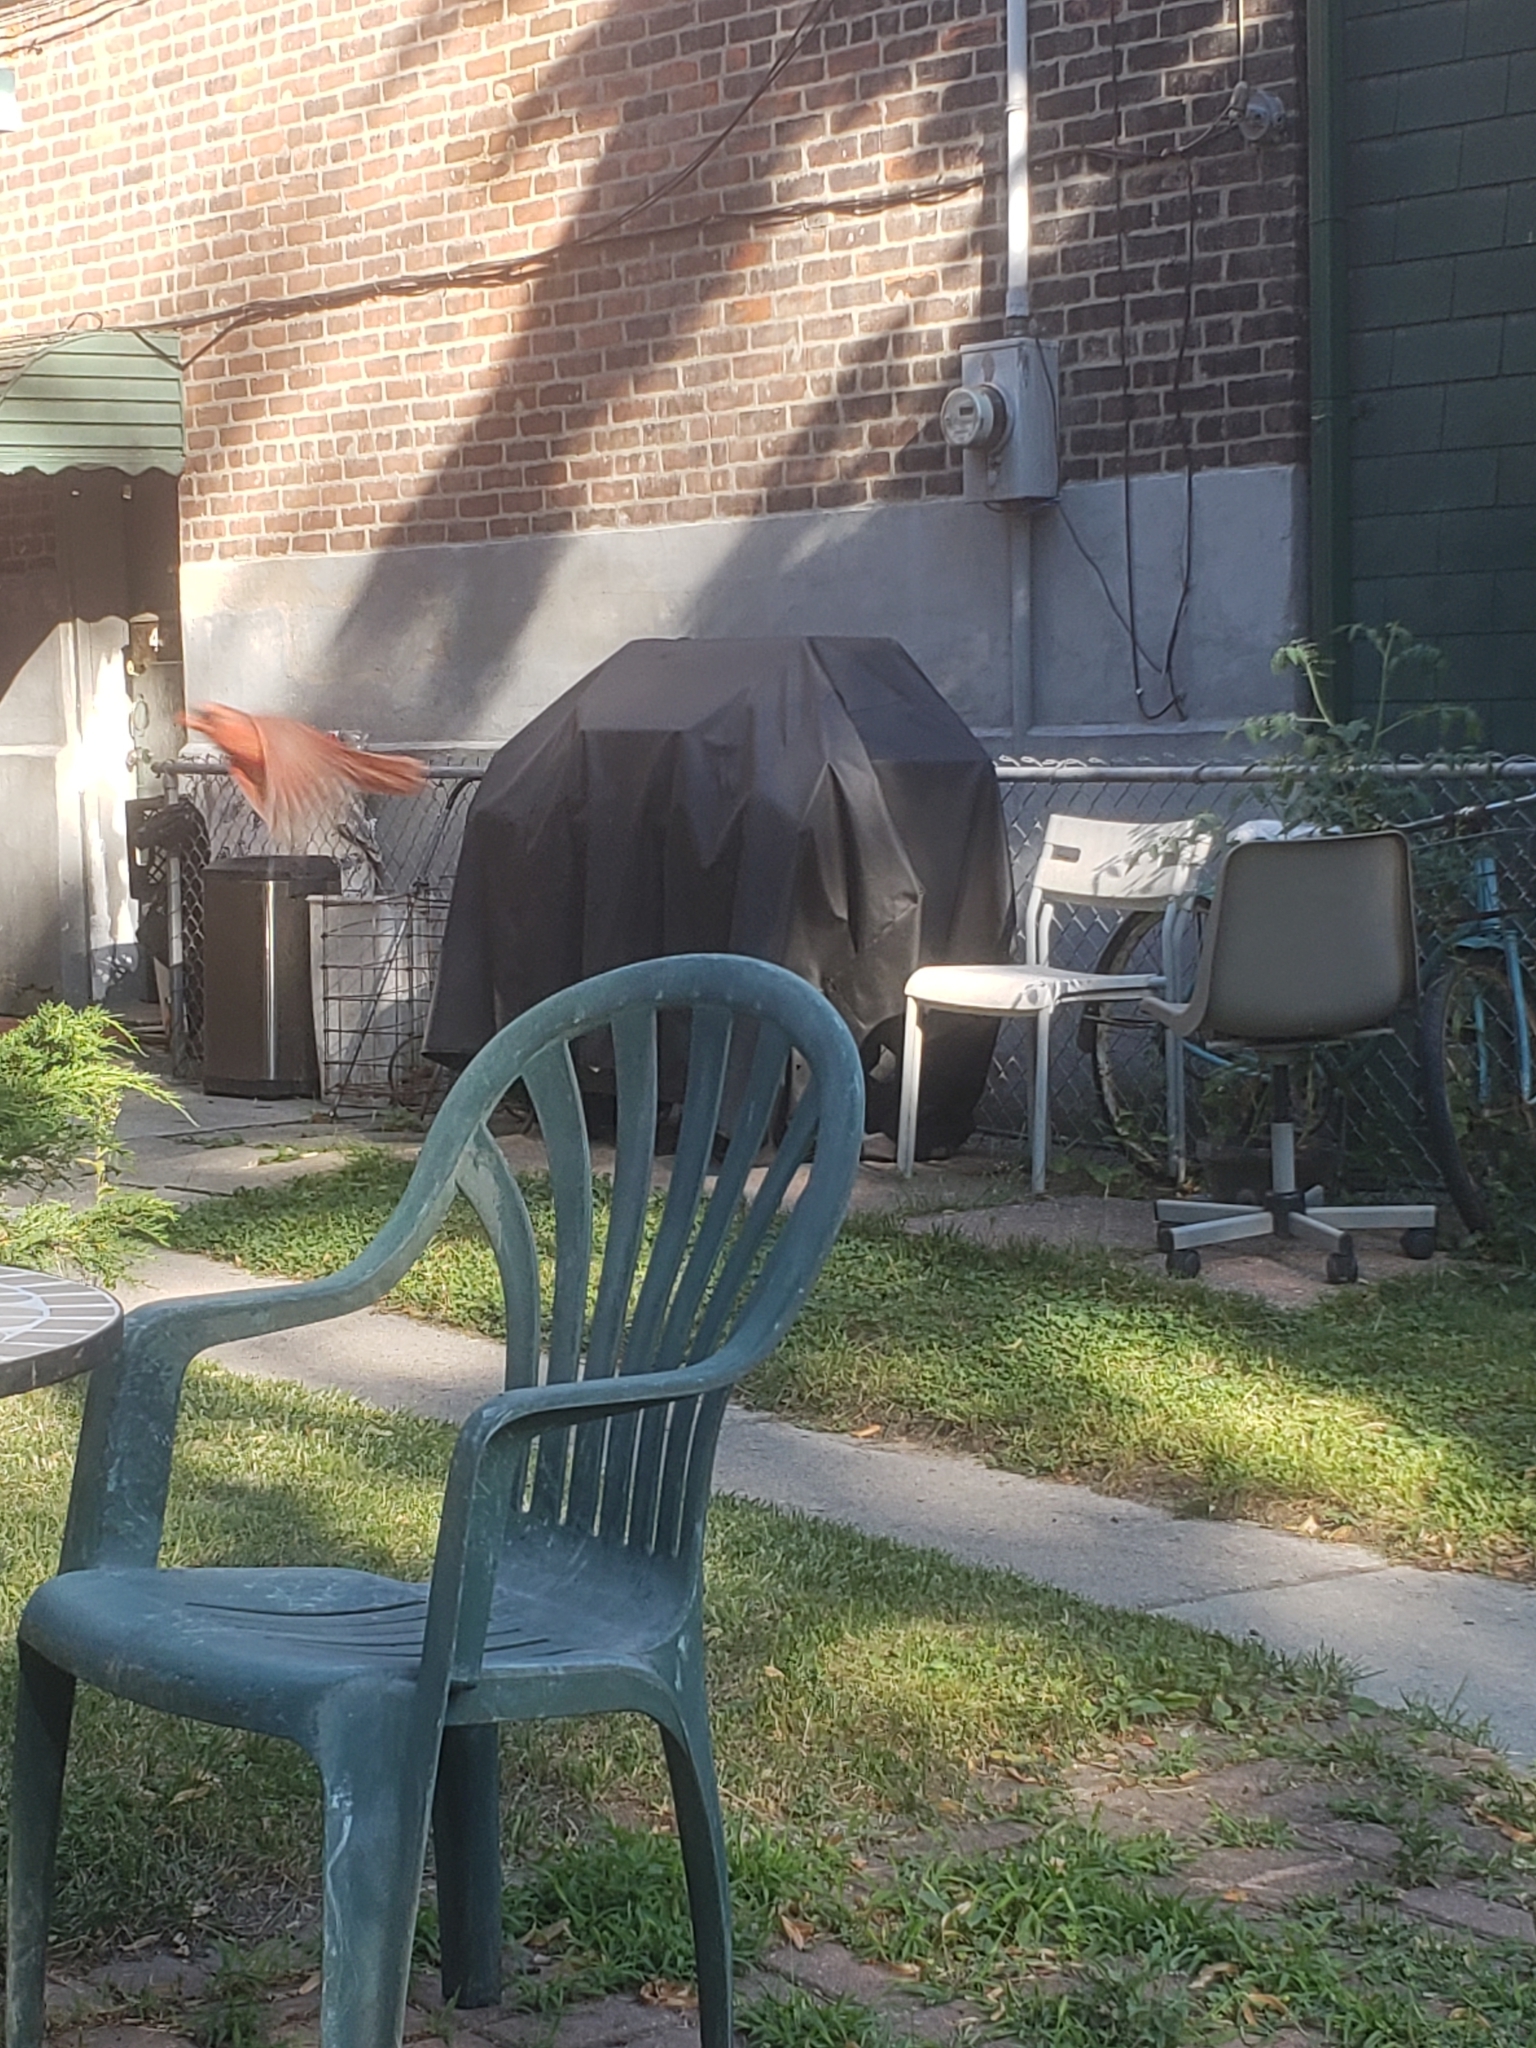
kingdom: Animalia
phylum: Chordata
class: Aves
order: Passeriformes
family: Cardinalidae
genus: Cardinalis
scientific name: Cardinalis cardinalis
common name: Northern cardinal
